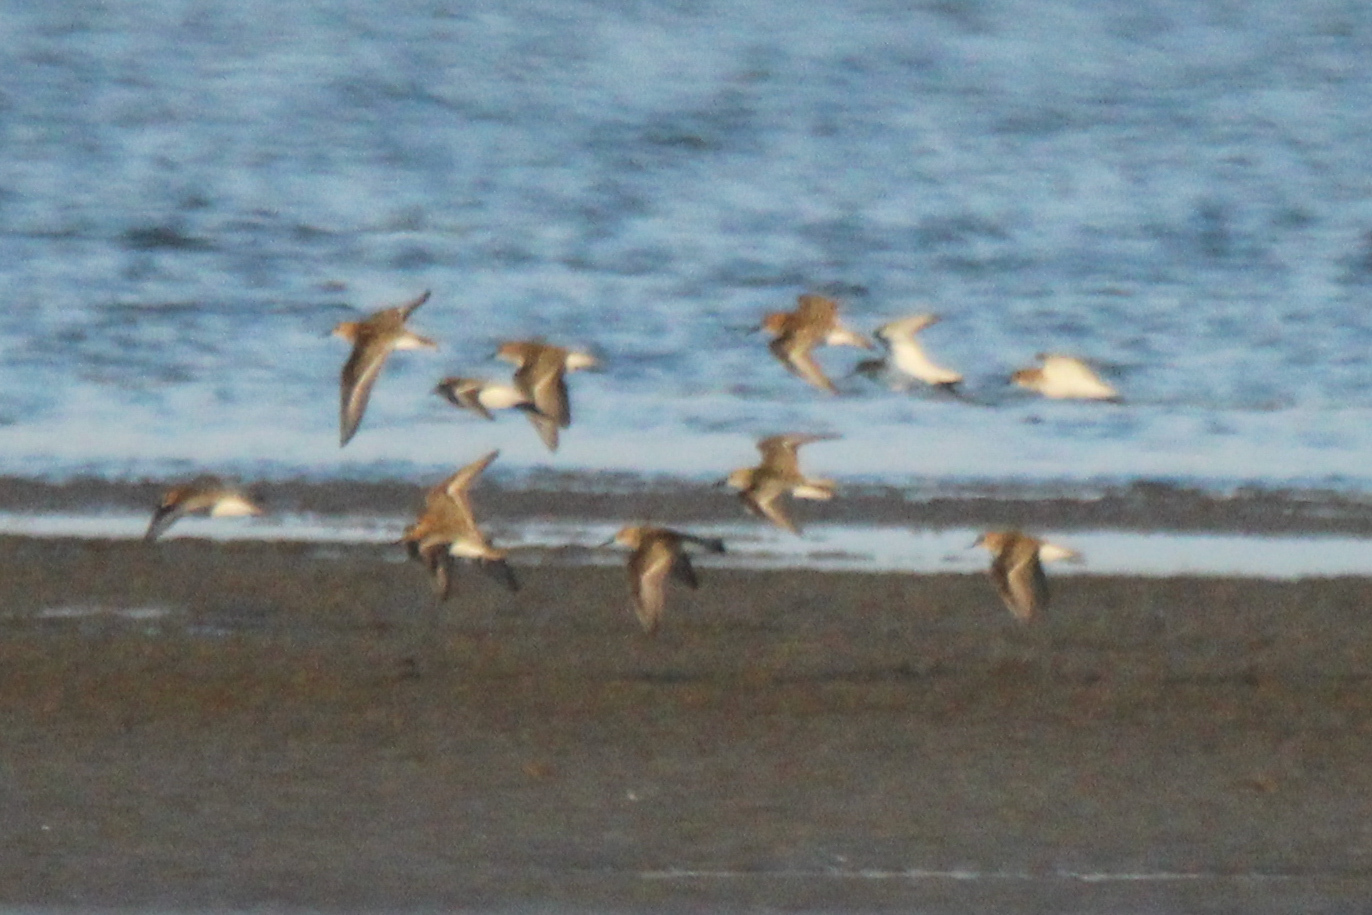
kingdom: Animalia
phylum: Chordata
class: Aves
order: Charadriiformes
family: Scolopacidae
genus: Calidris
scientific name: Calidris minuta
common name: Little stint
